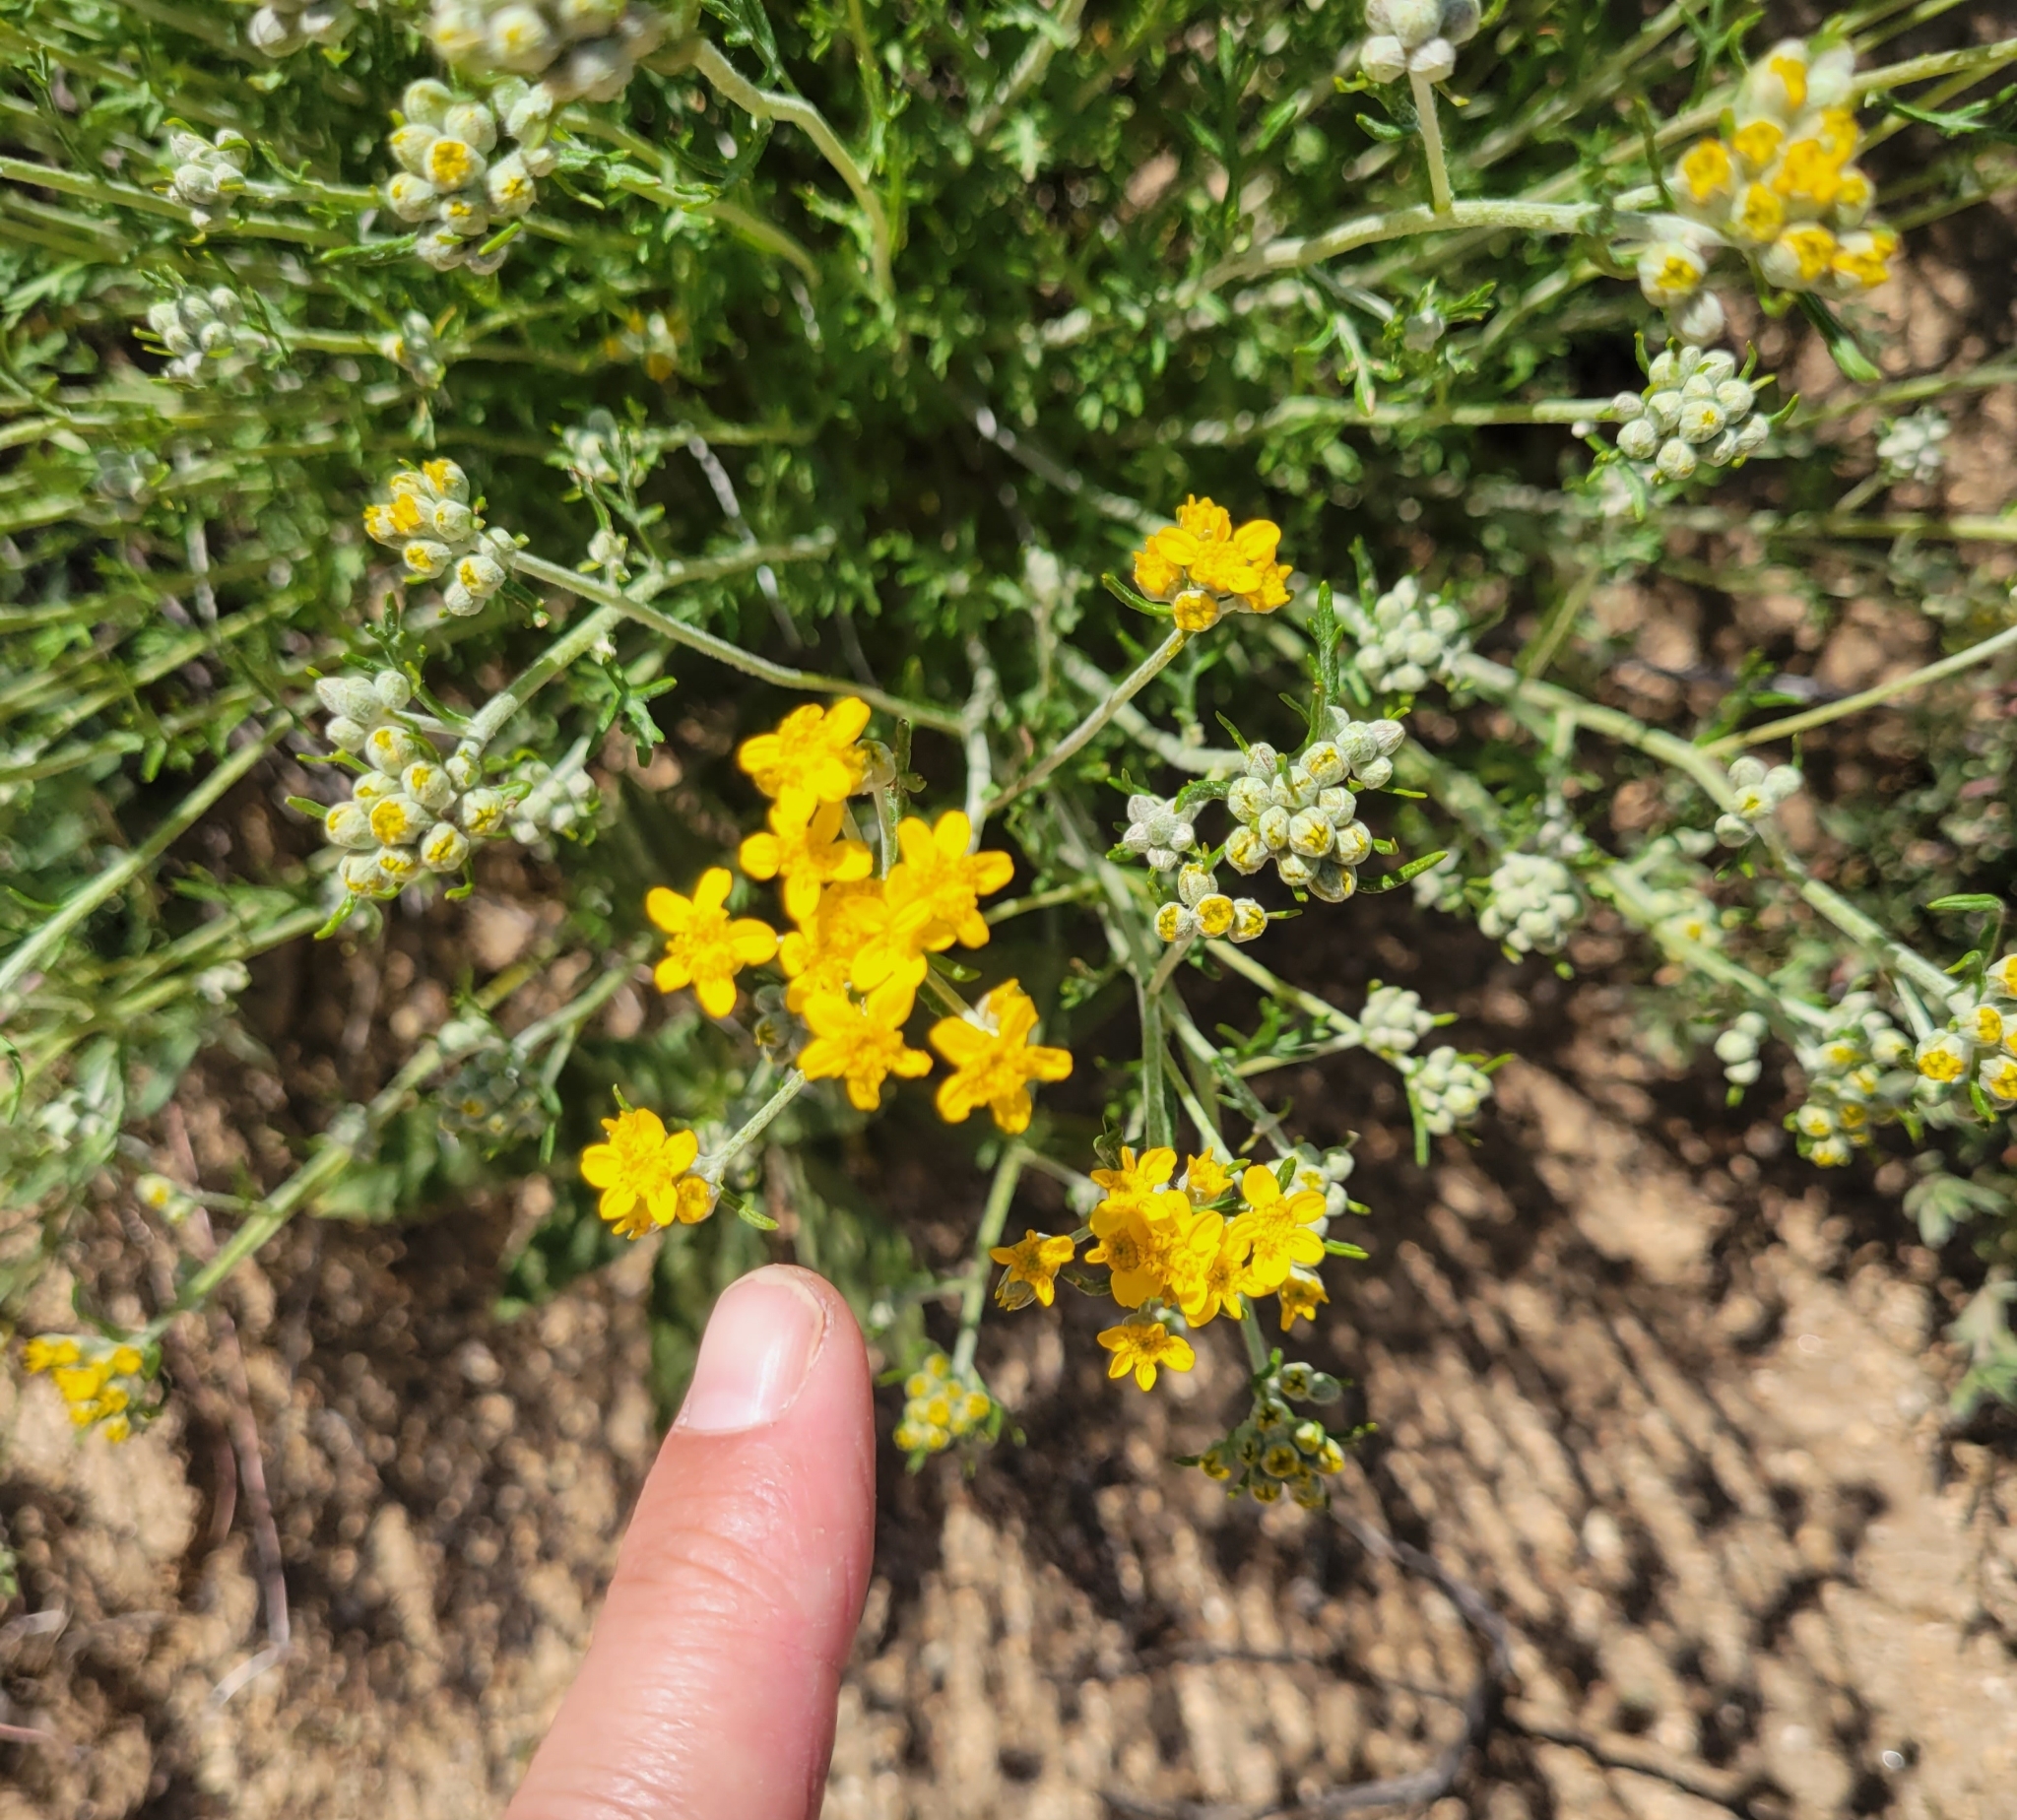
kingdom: Plantae
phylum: Tracheophyta
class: Magnoliopsida
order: Asterales
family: Asteraceae
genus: Eriophyllum
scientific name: Eriophyllum confertiflorum
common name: Golden-yarrow
